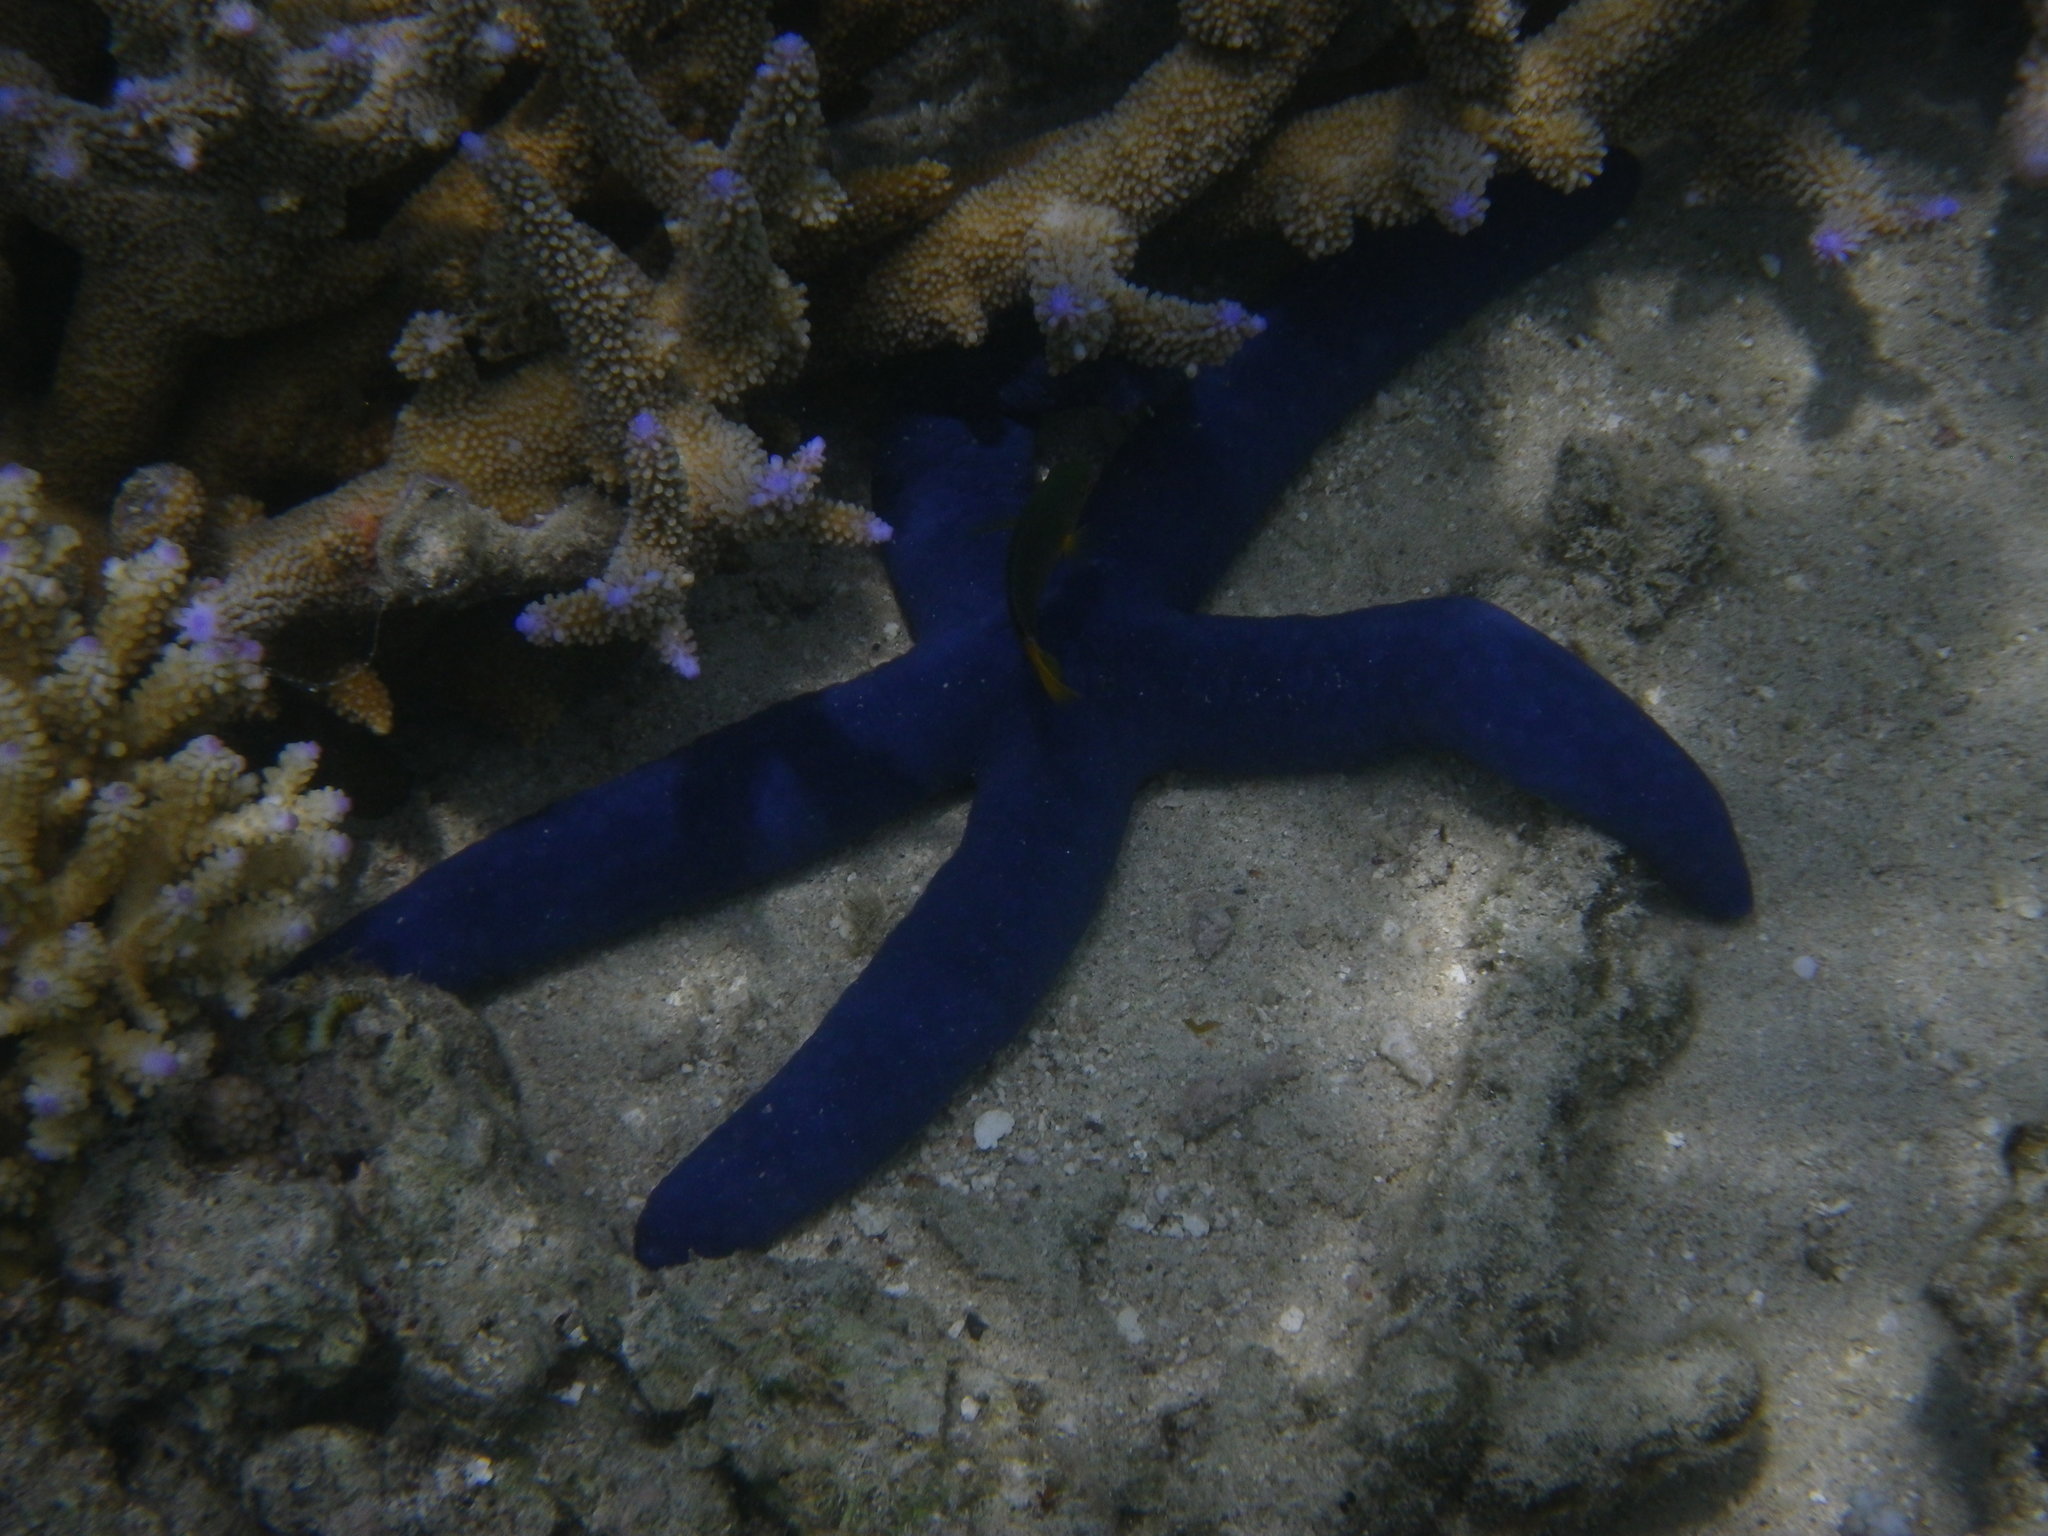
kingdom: Animalia
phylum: Echinodermata
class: Asteroidea
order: Valvatida
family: Ophidiasteridae
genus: Linckia
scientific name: Linckia laevigata
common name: Azure sea star
